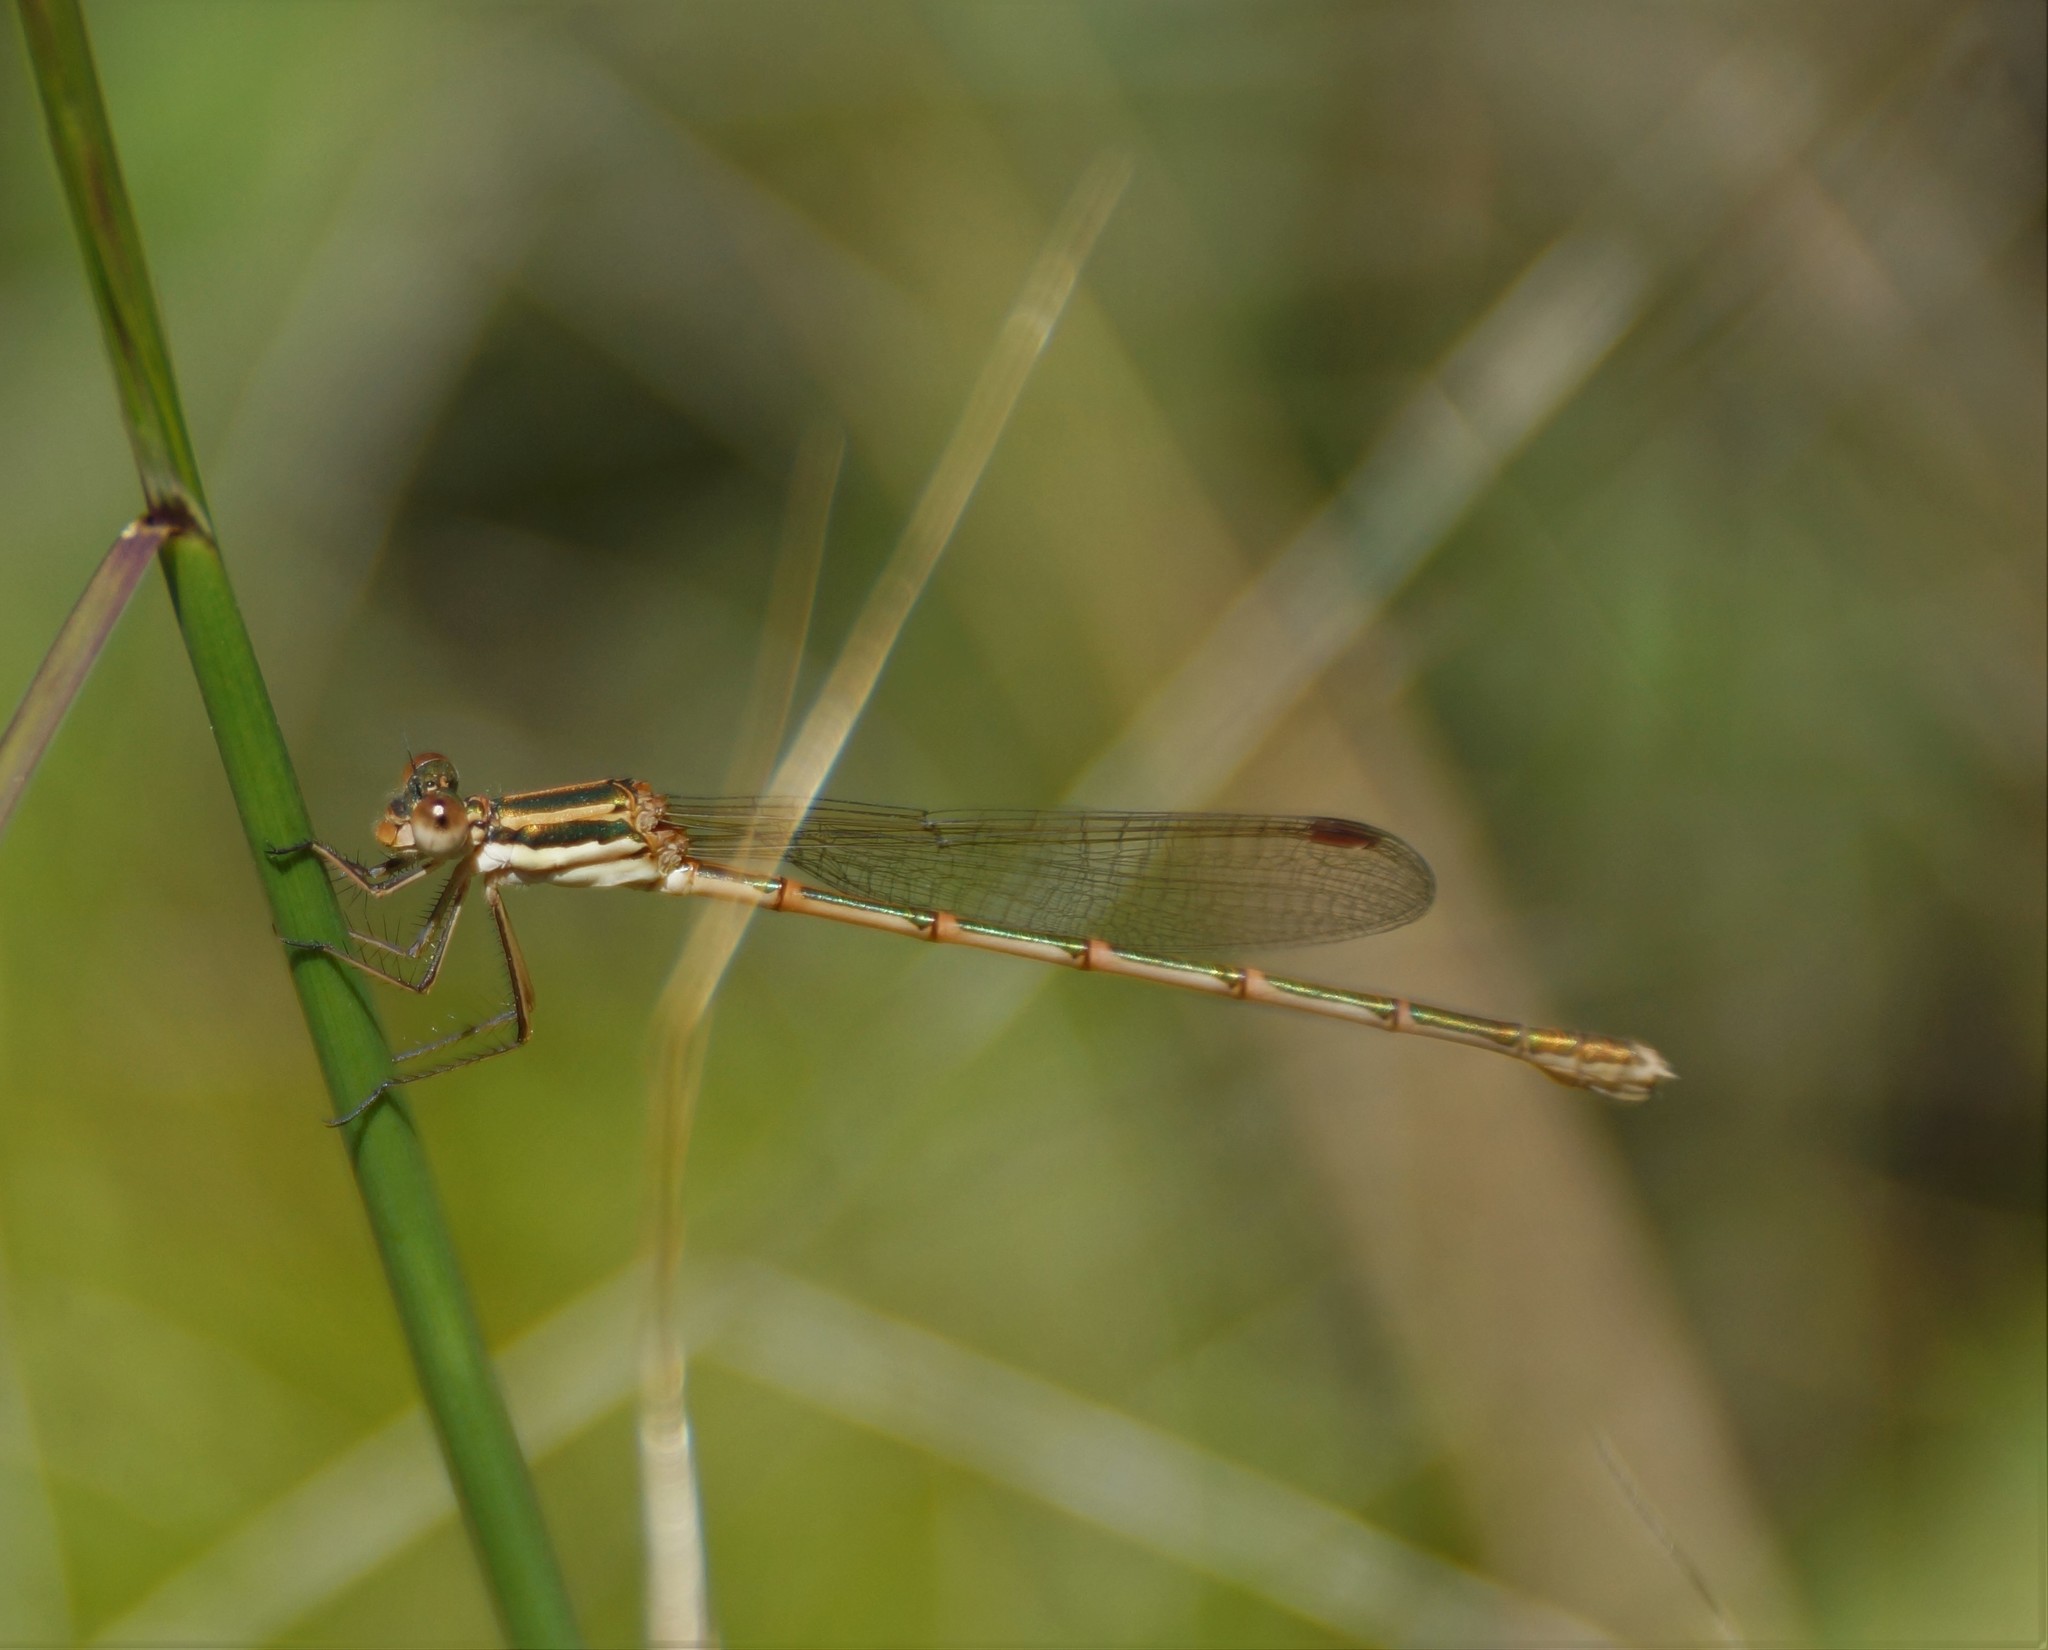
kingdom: Animalia
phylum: Arthropoda
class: Insecta
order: Odonata
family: Lestidae
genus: Austrolestes
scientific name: Austrolestes analis
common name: Slender ringtail
